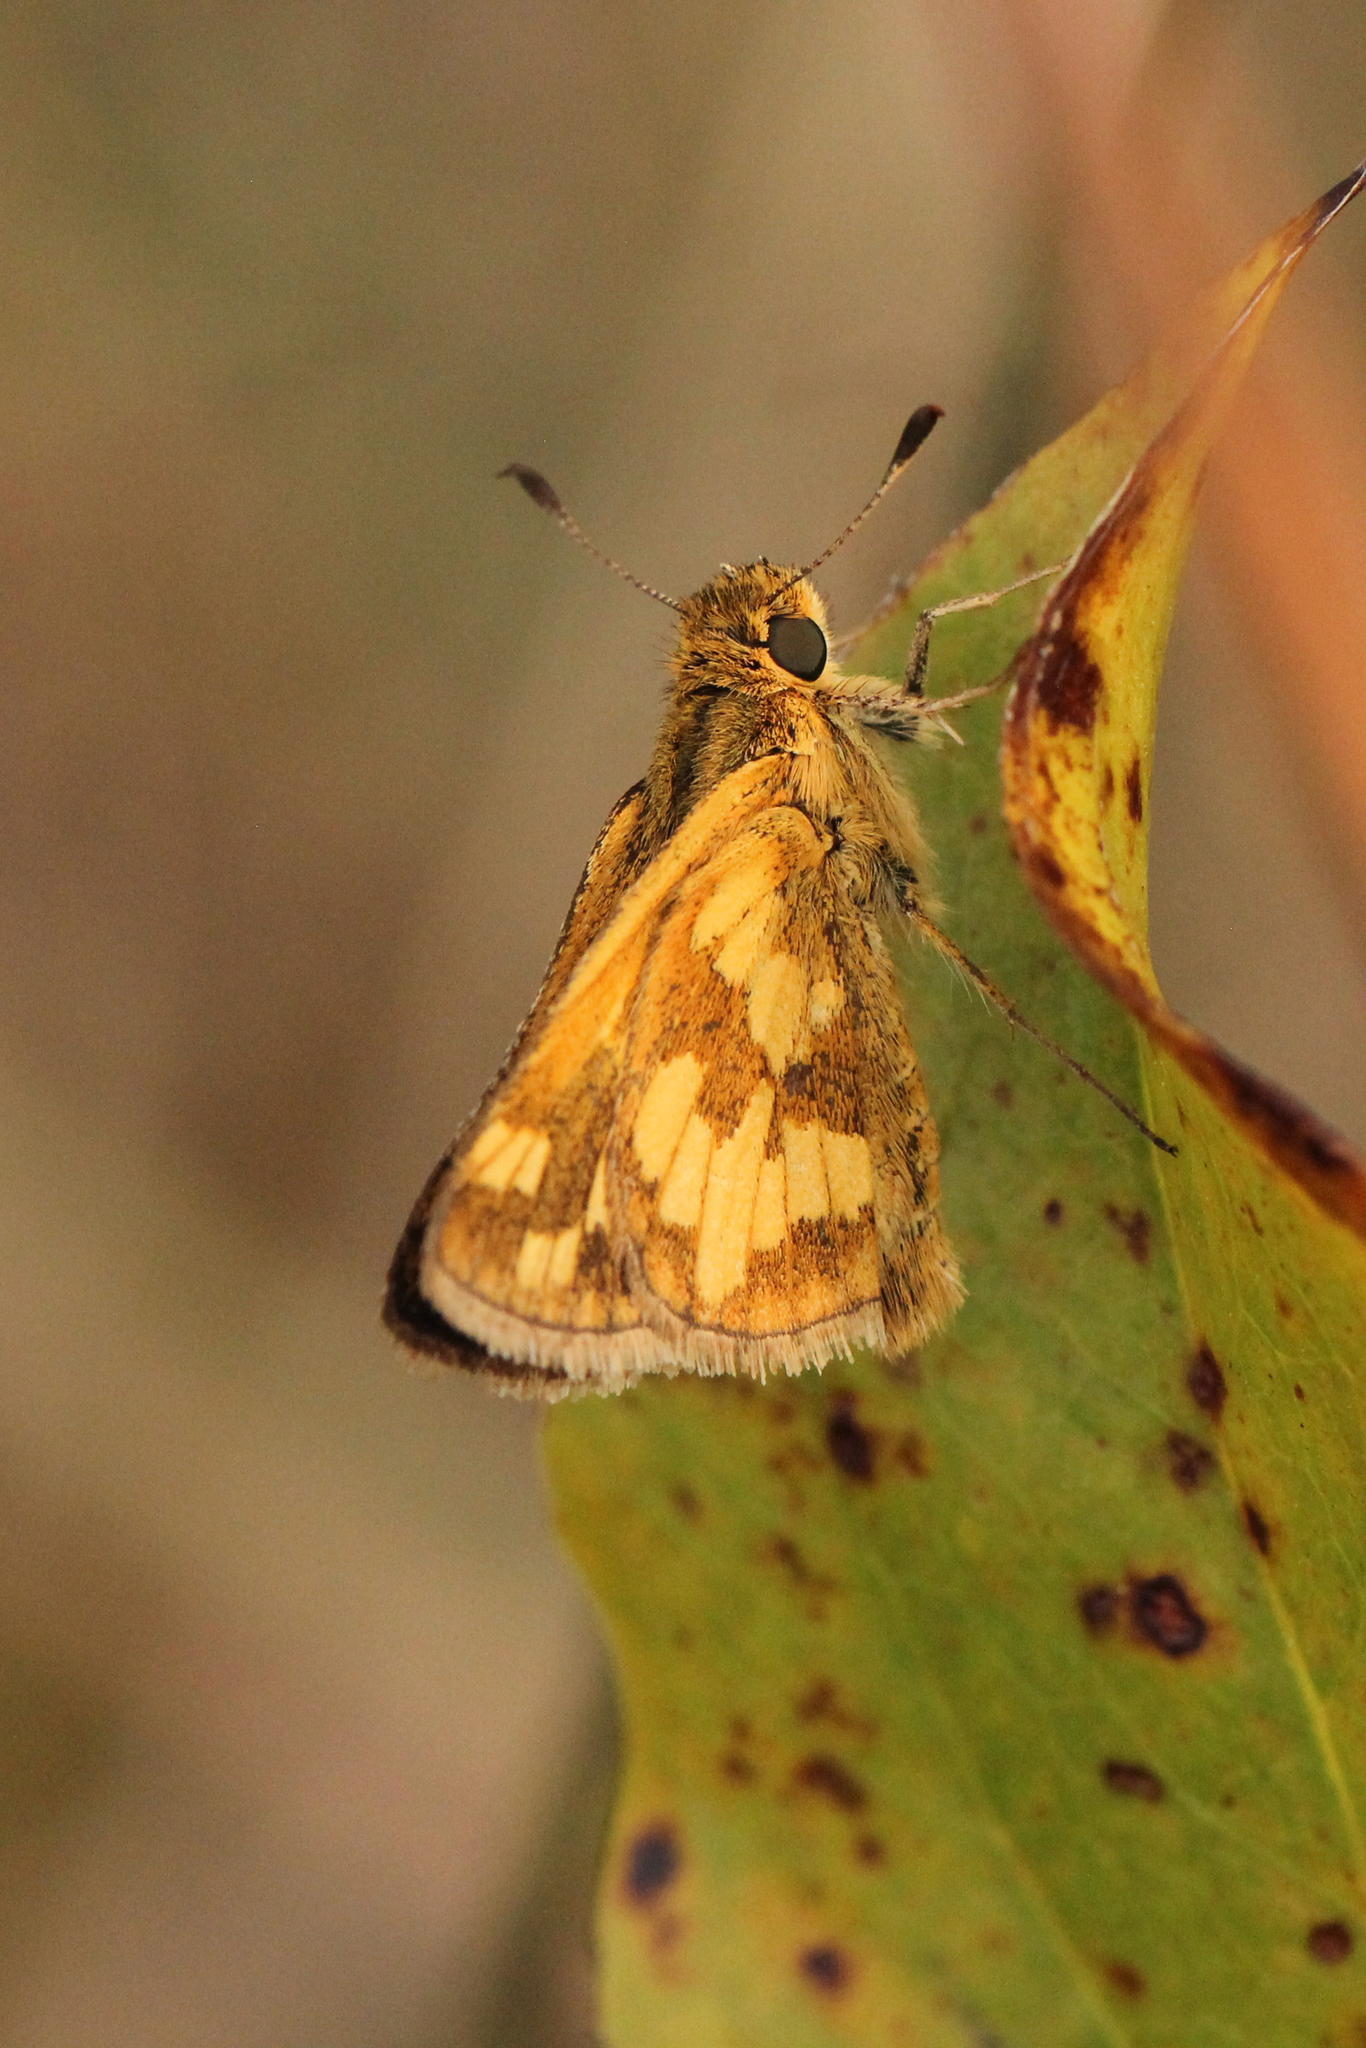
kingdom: Animalia
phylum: Arthropoda
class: Insecta
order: Lepidoptera
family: Hesperiidae
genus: Polites
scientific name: Polites coras
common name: Peck's skipper
